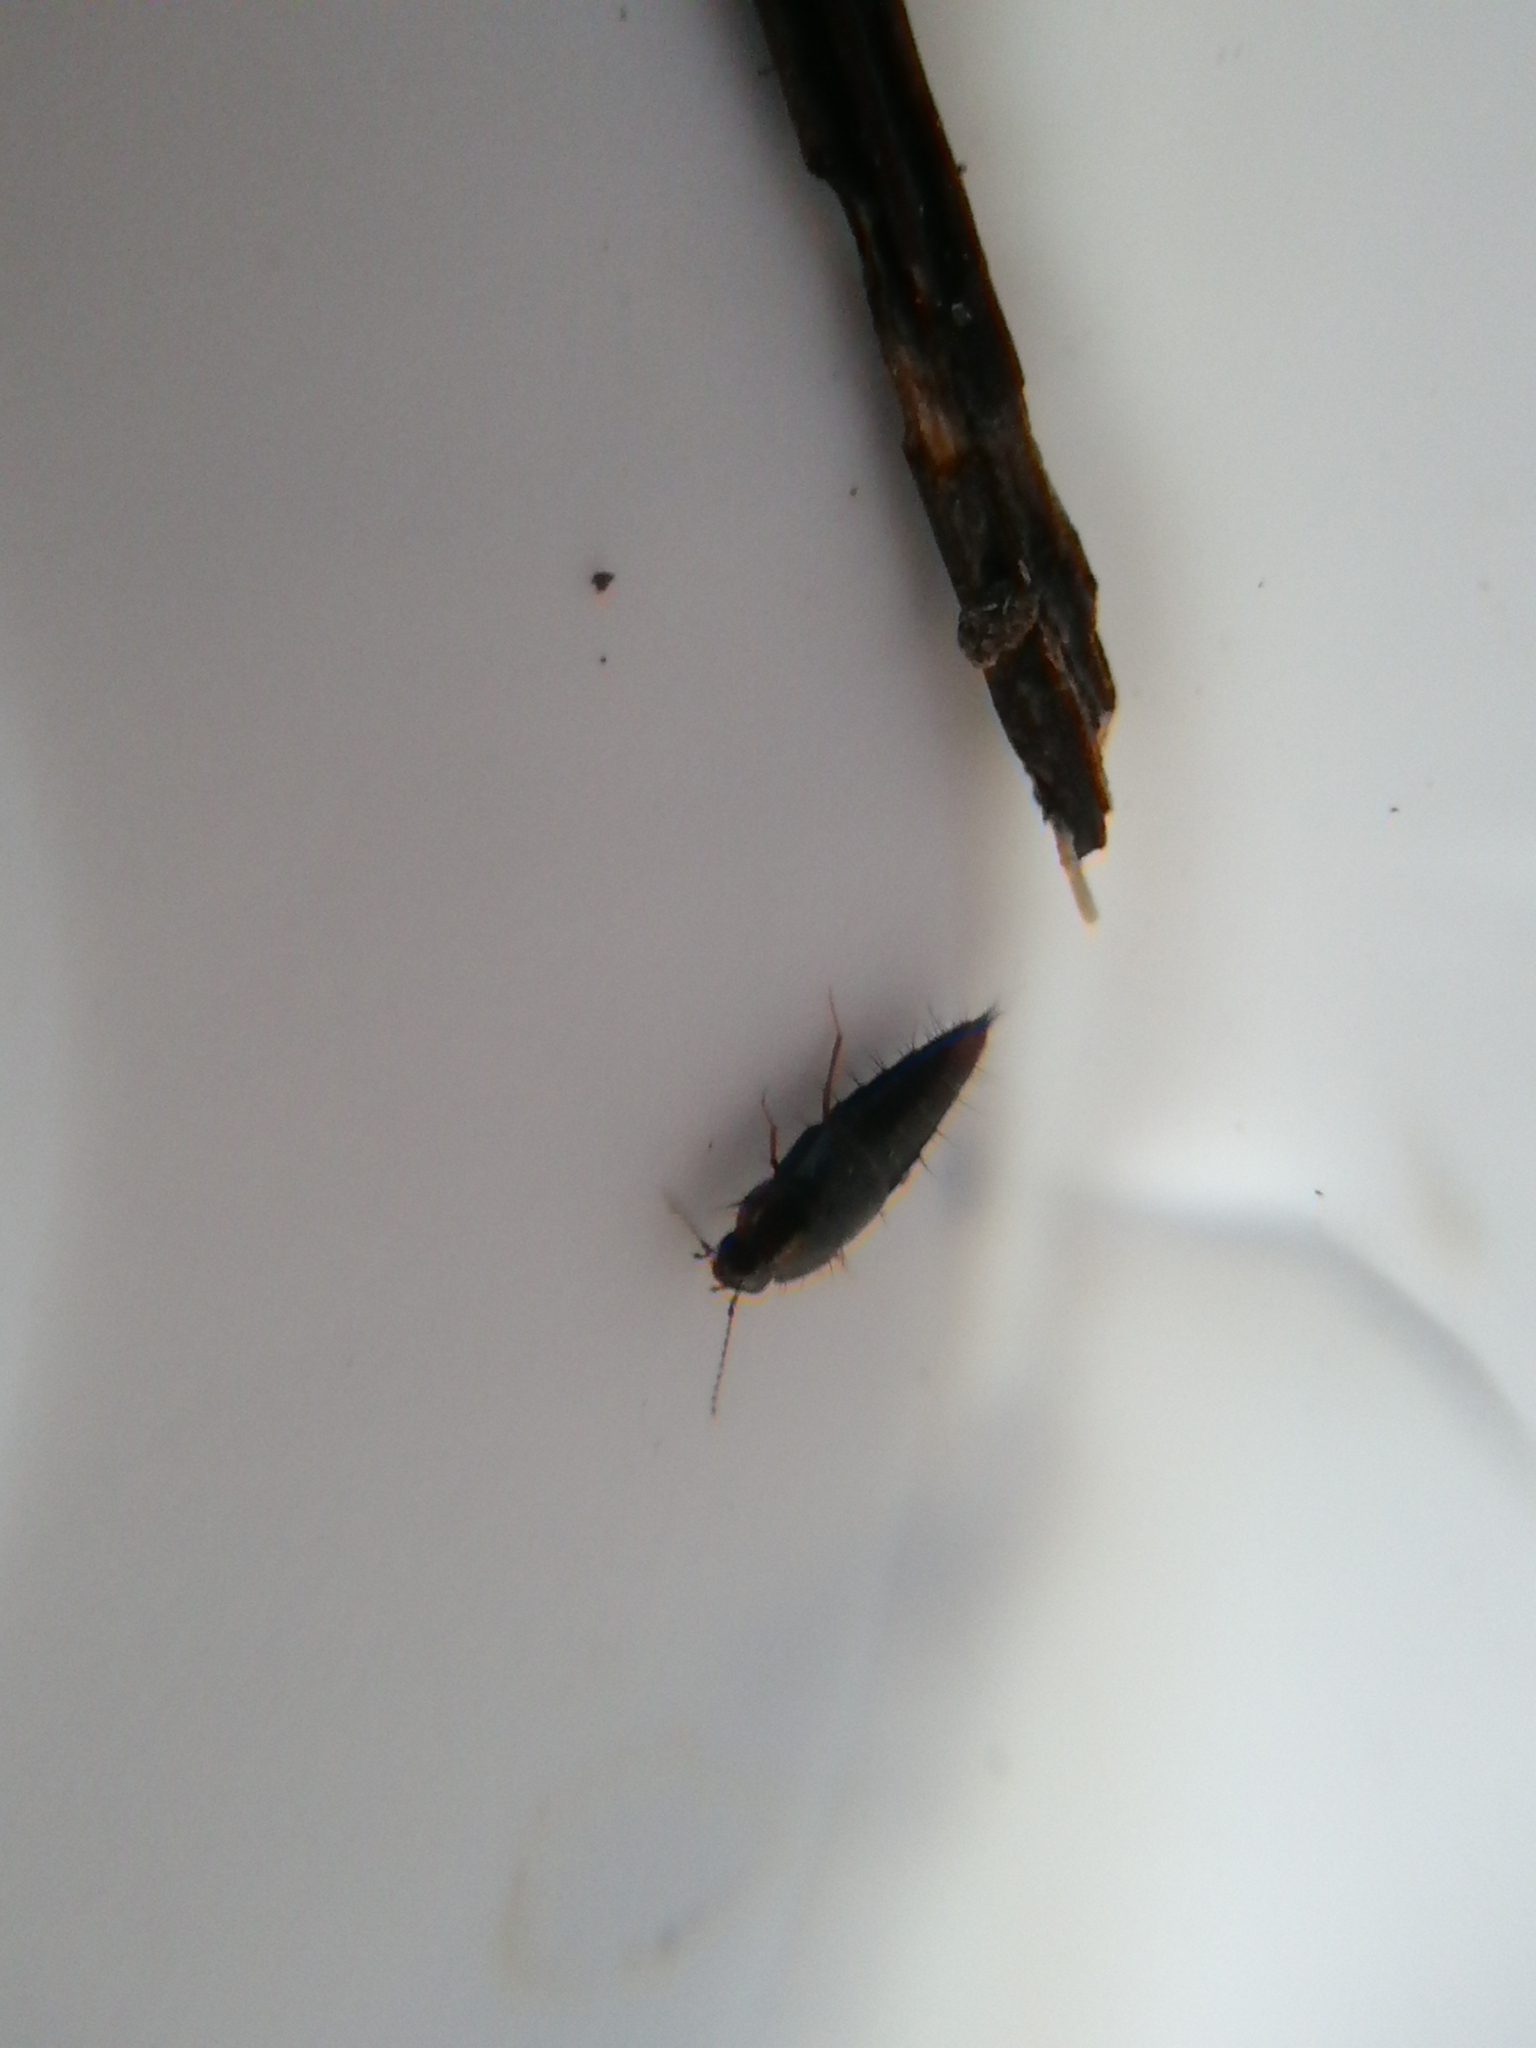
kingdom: Animalia
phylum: Arthropoda
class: Insecta
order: Coleoptera
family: Staphylinidae
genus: Habrocerus
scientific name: Habrocerus capillaricornis
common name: Staph beetle
